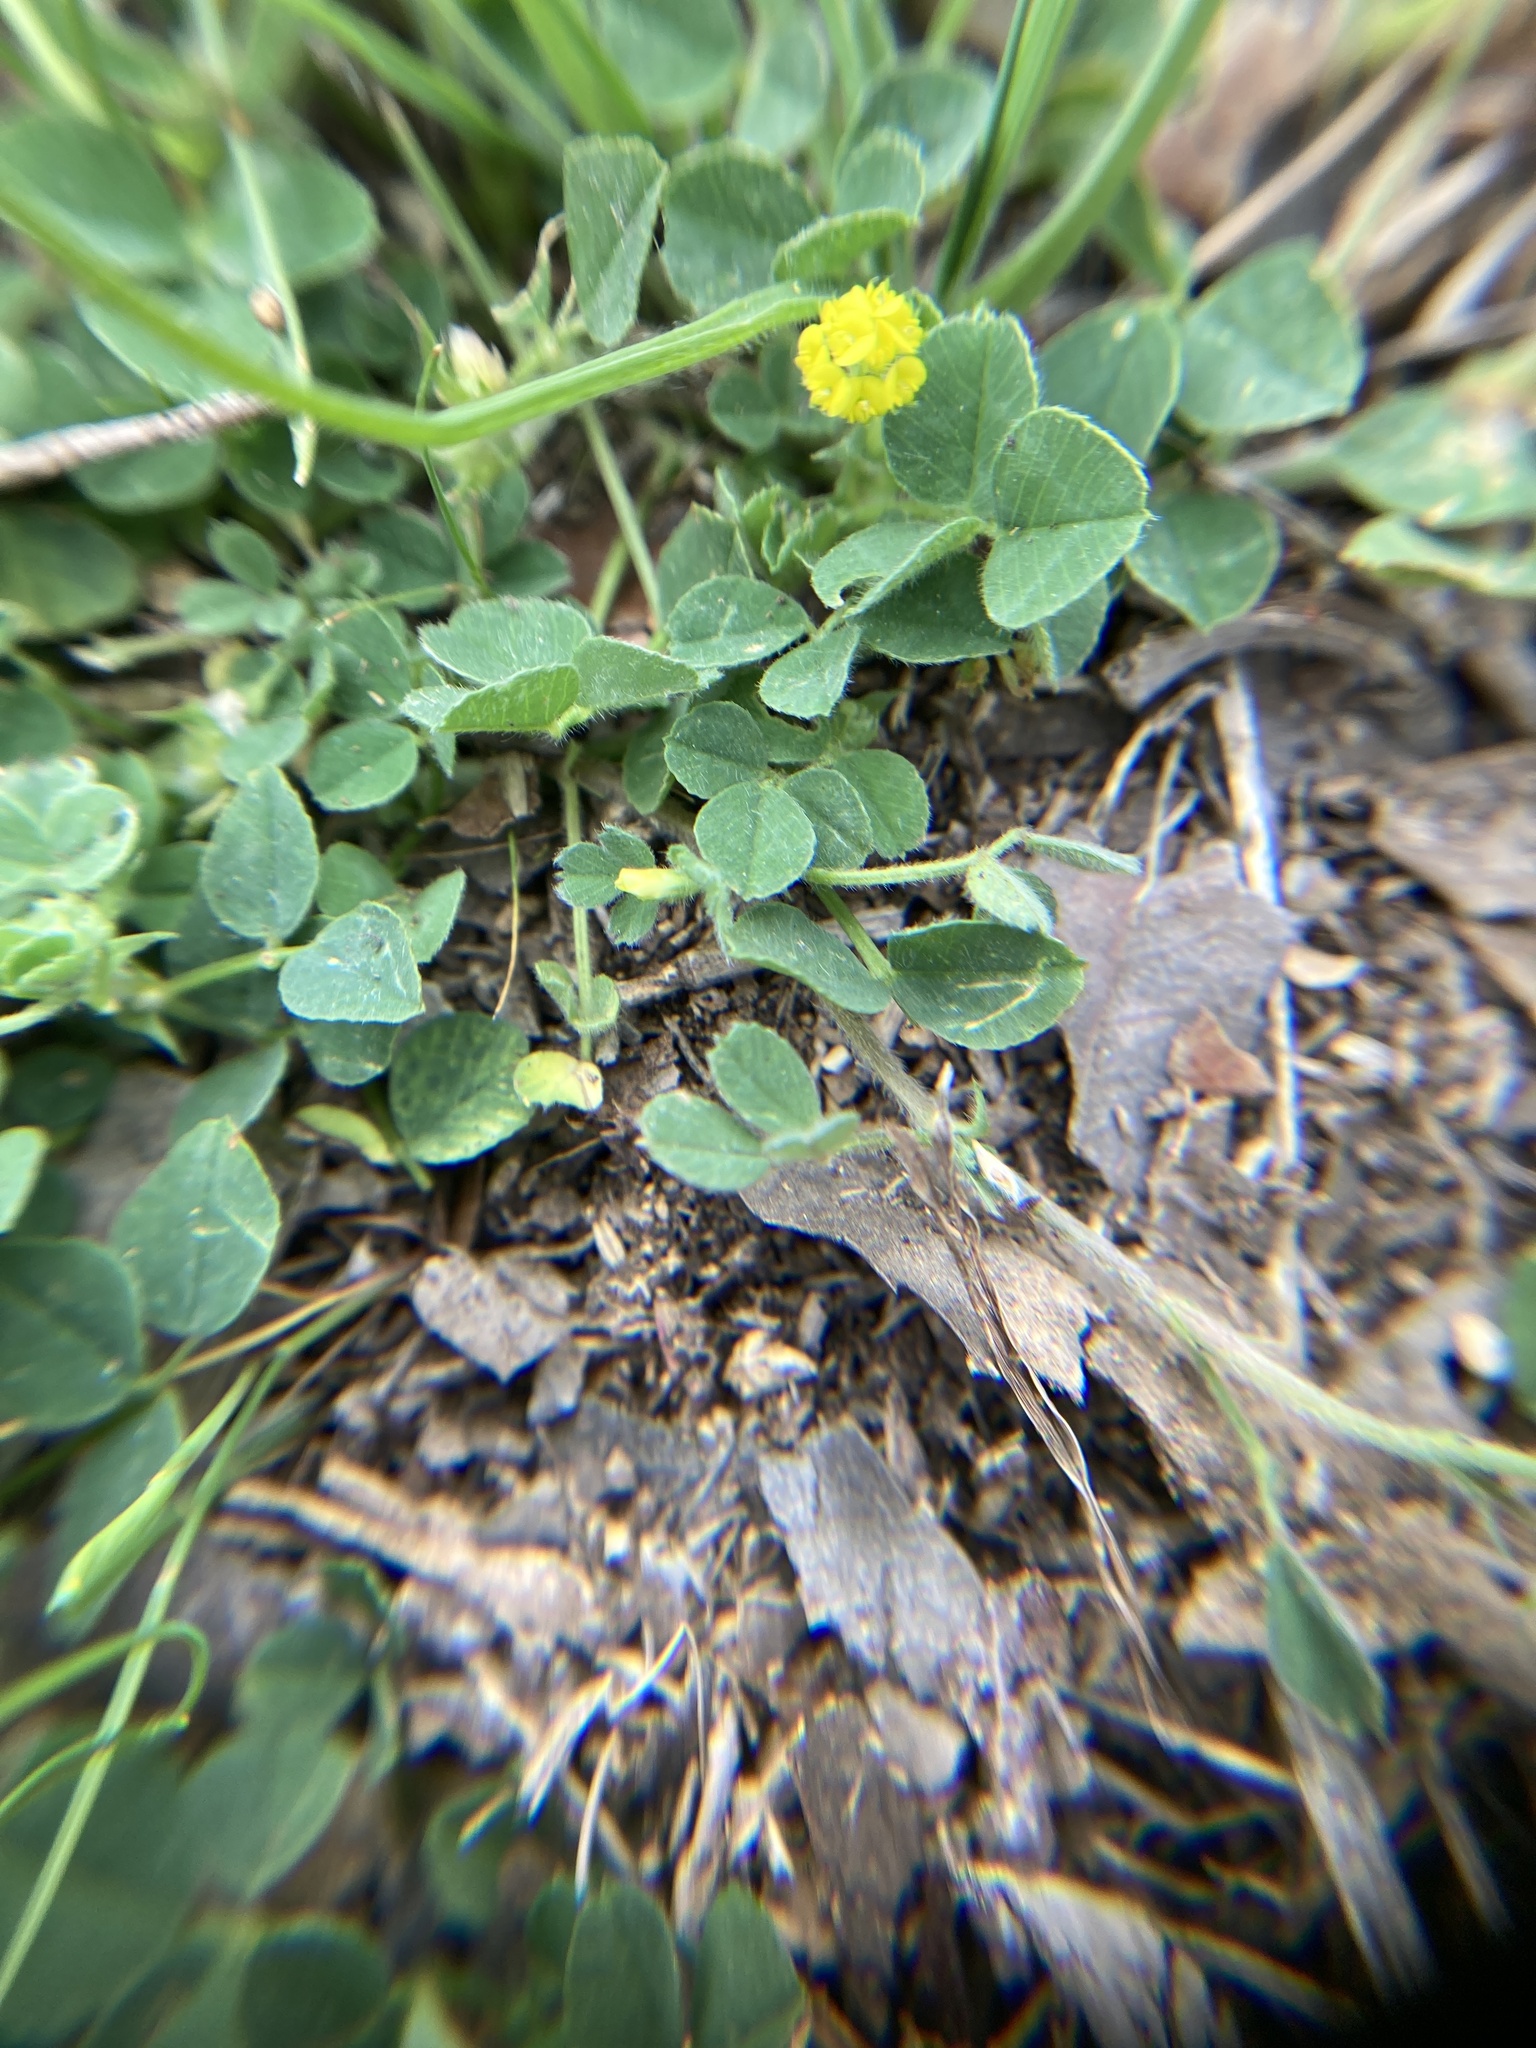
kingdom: Plantae
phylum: Tracheophyta
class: Magnoliopsida
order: Fabales
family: Fabaceae
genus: Medicago
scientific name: Medicago lupulina
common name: Black medick
